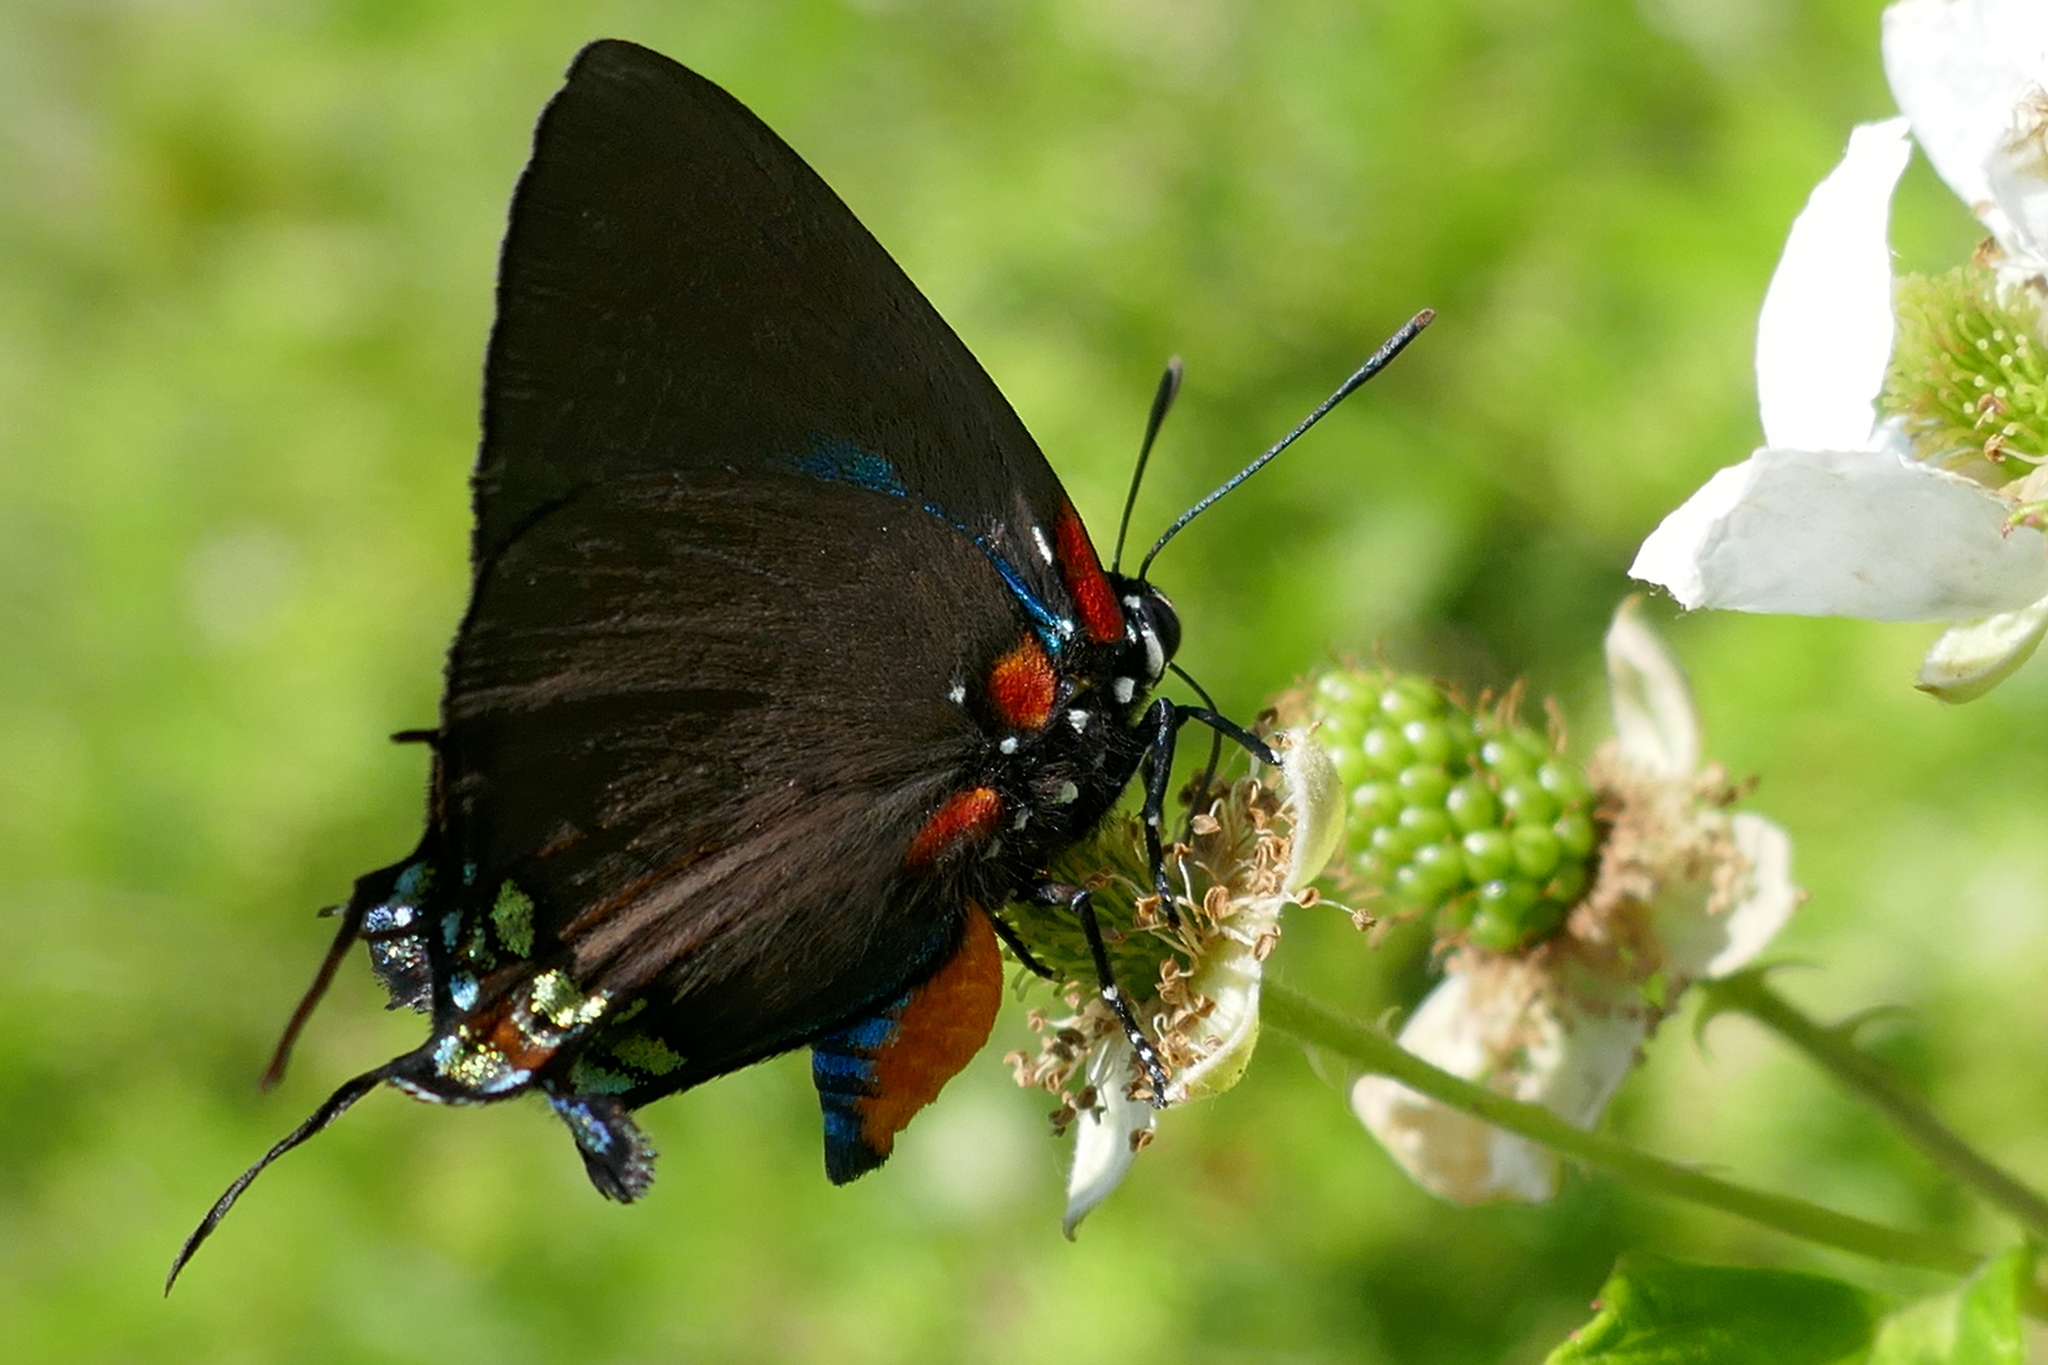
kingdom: Animalia
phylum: Arthropoda
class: Insecta
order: Lepidoptera
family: Lycaenidae
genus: Atlides
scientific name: Atlides halesus
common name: Great purple hairstreak
